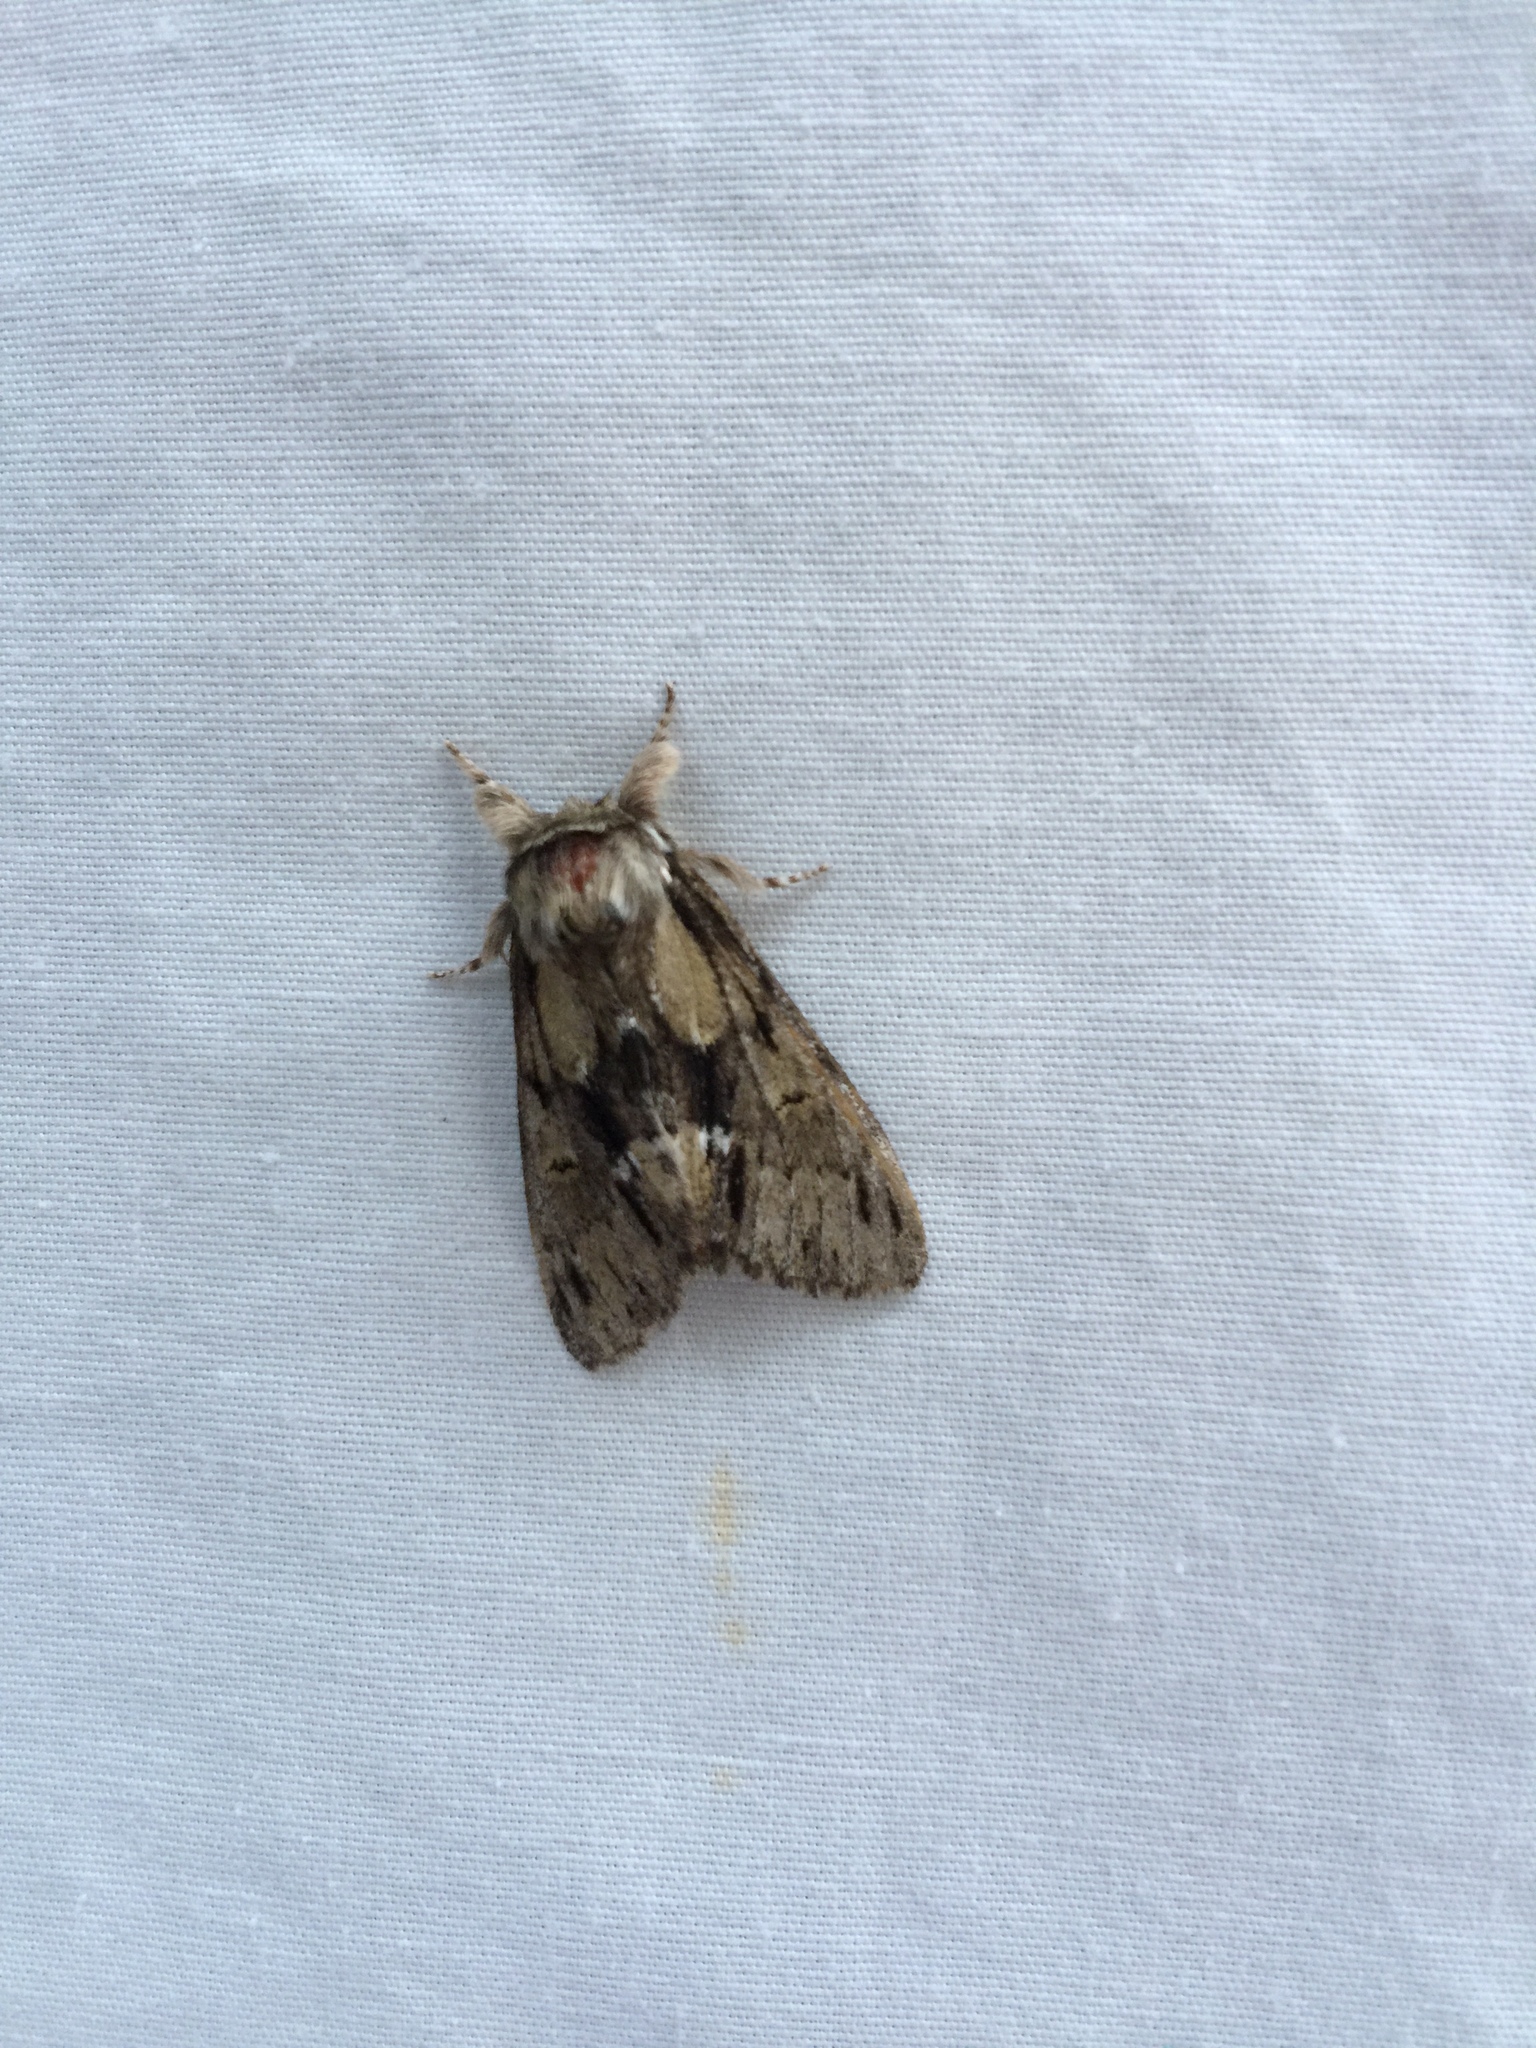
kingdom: Animalia
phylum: Arthropoda
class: Insecta
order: Lepidoptera
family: Notodontidae
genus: Paraeschra
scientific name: Paraeschra georgica
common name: Georgian prominent
